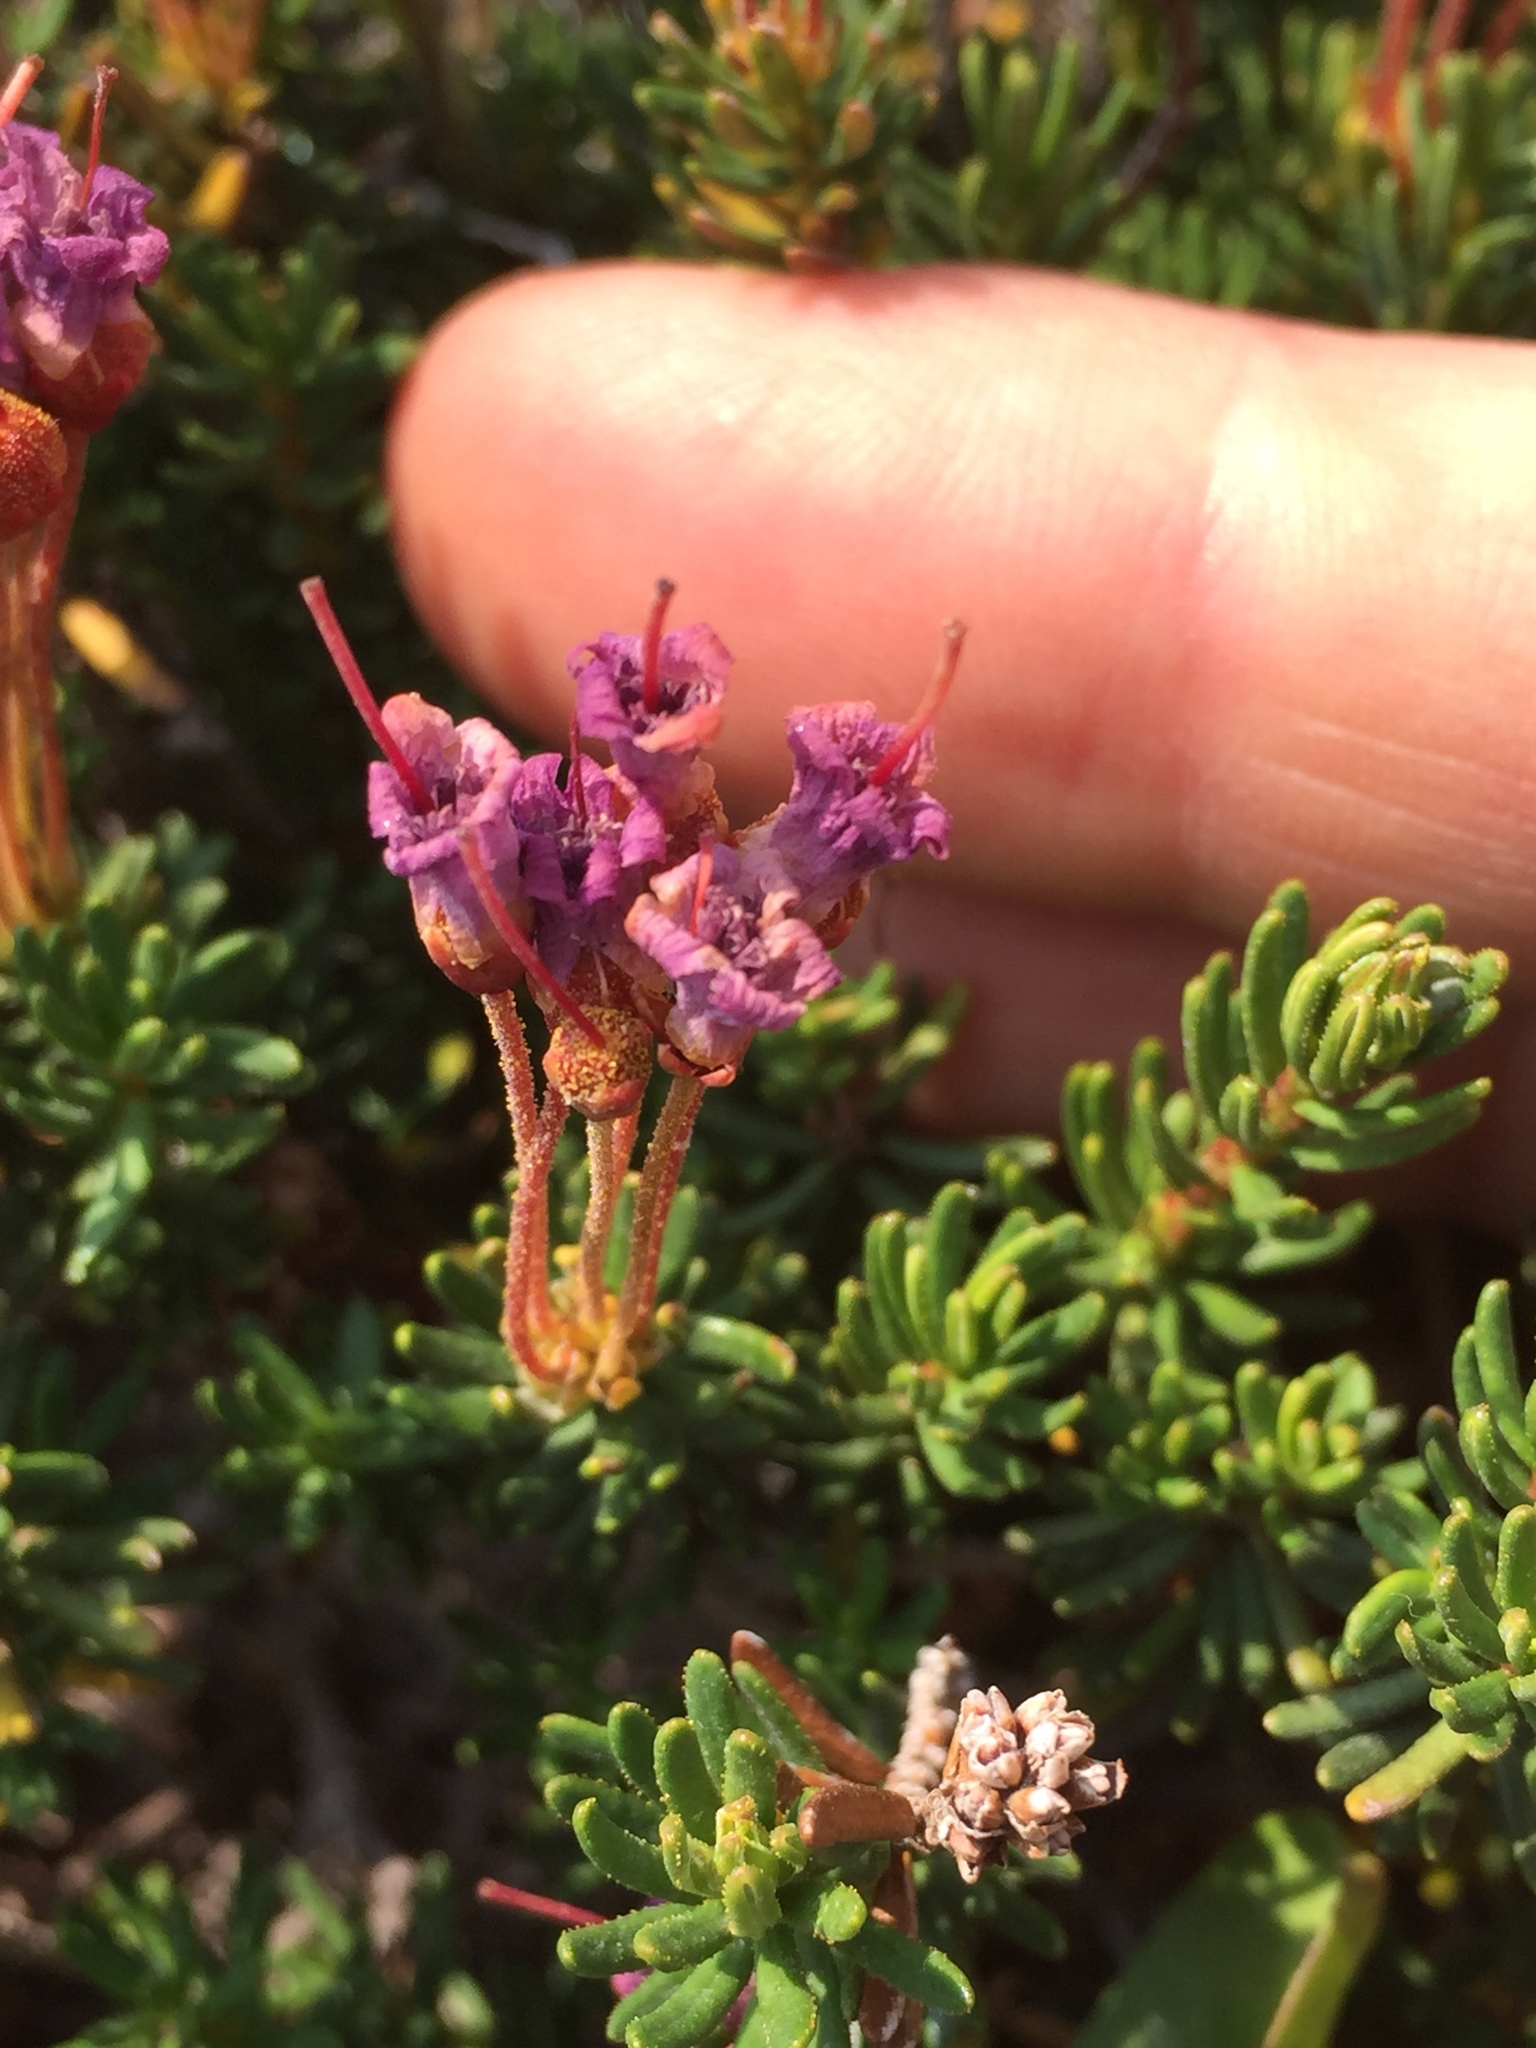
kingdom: Plantae
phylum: Tracheophyta
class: Magnoliopsida
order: Ericales
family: Ericaceae
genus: Phyllodoce
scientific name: Phyllodoce empetriformis
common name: Pink mountain heather
